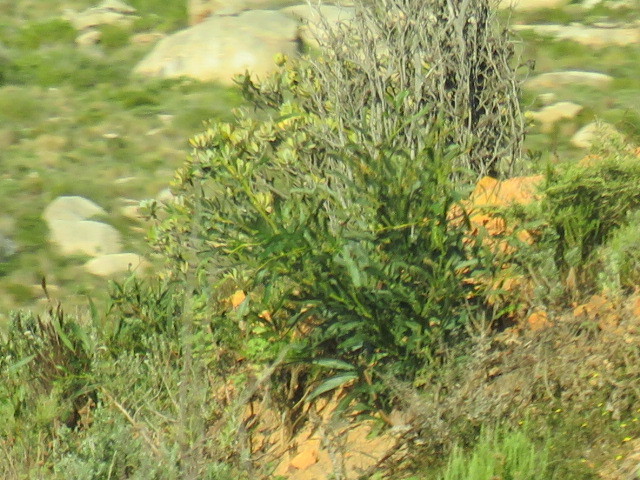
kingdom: Plantae
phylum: Tracheophyta
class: Magnoliopsida
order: Fabales
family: Fabaceae
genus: Acacia
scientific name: Acacia saligna
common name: Orange wattle
